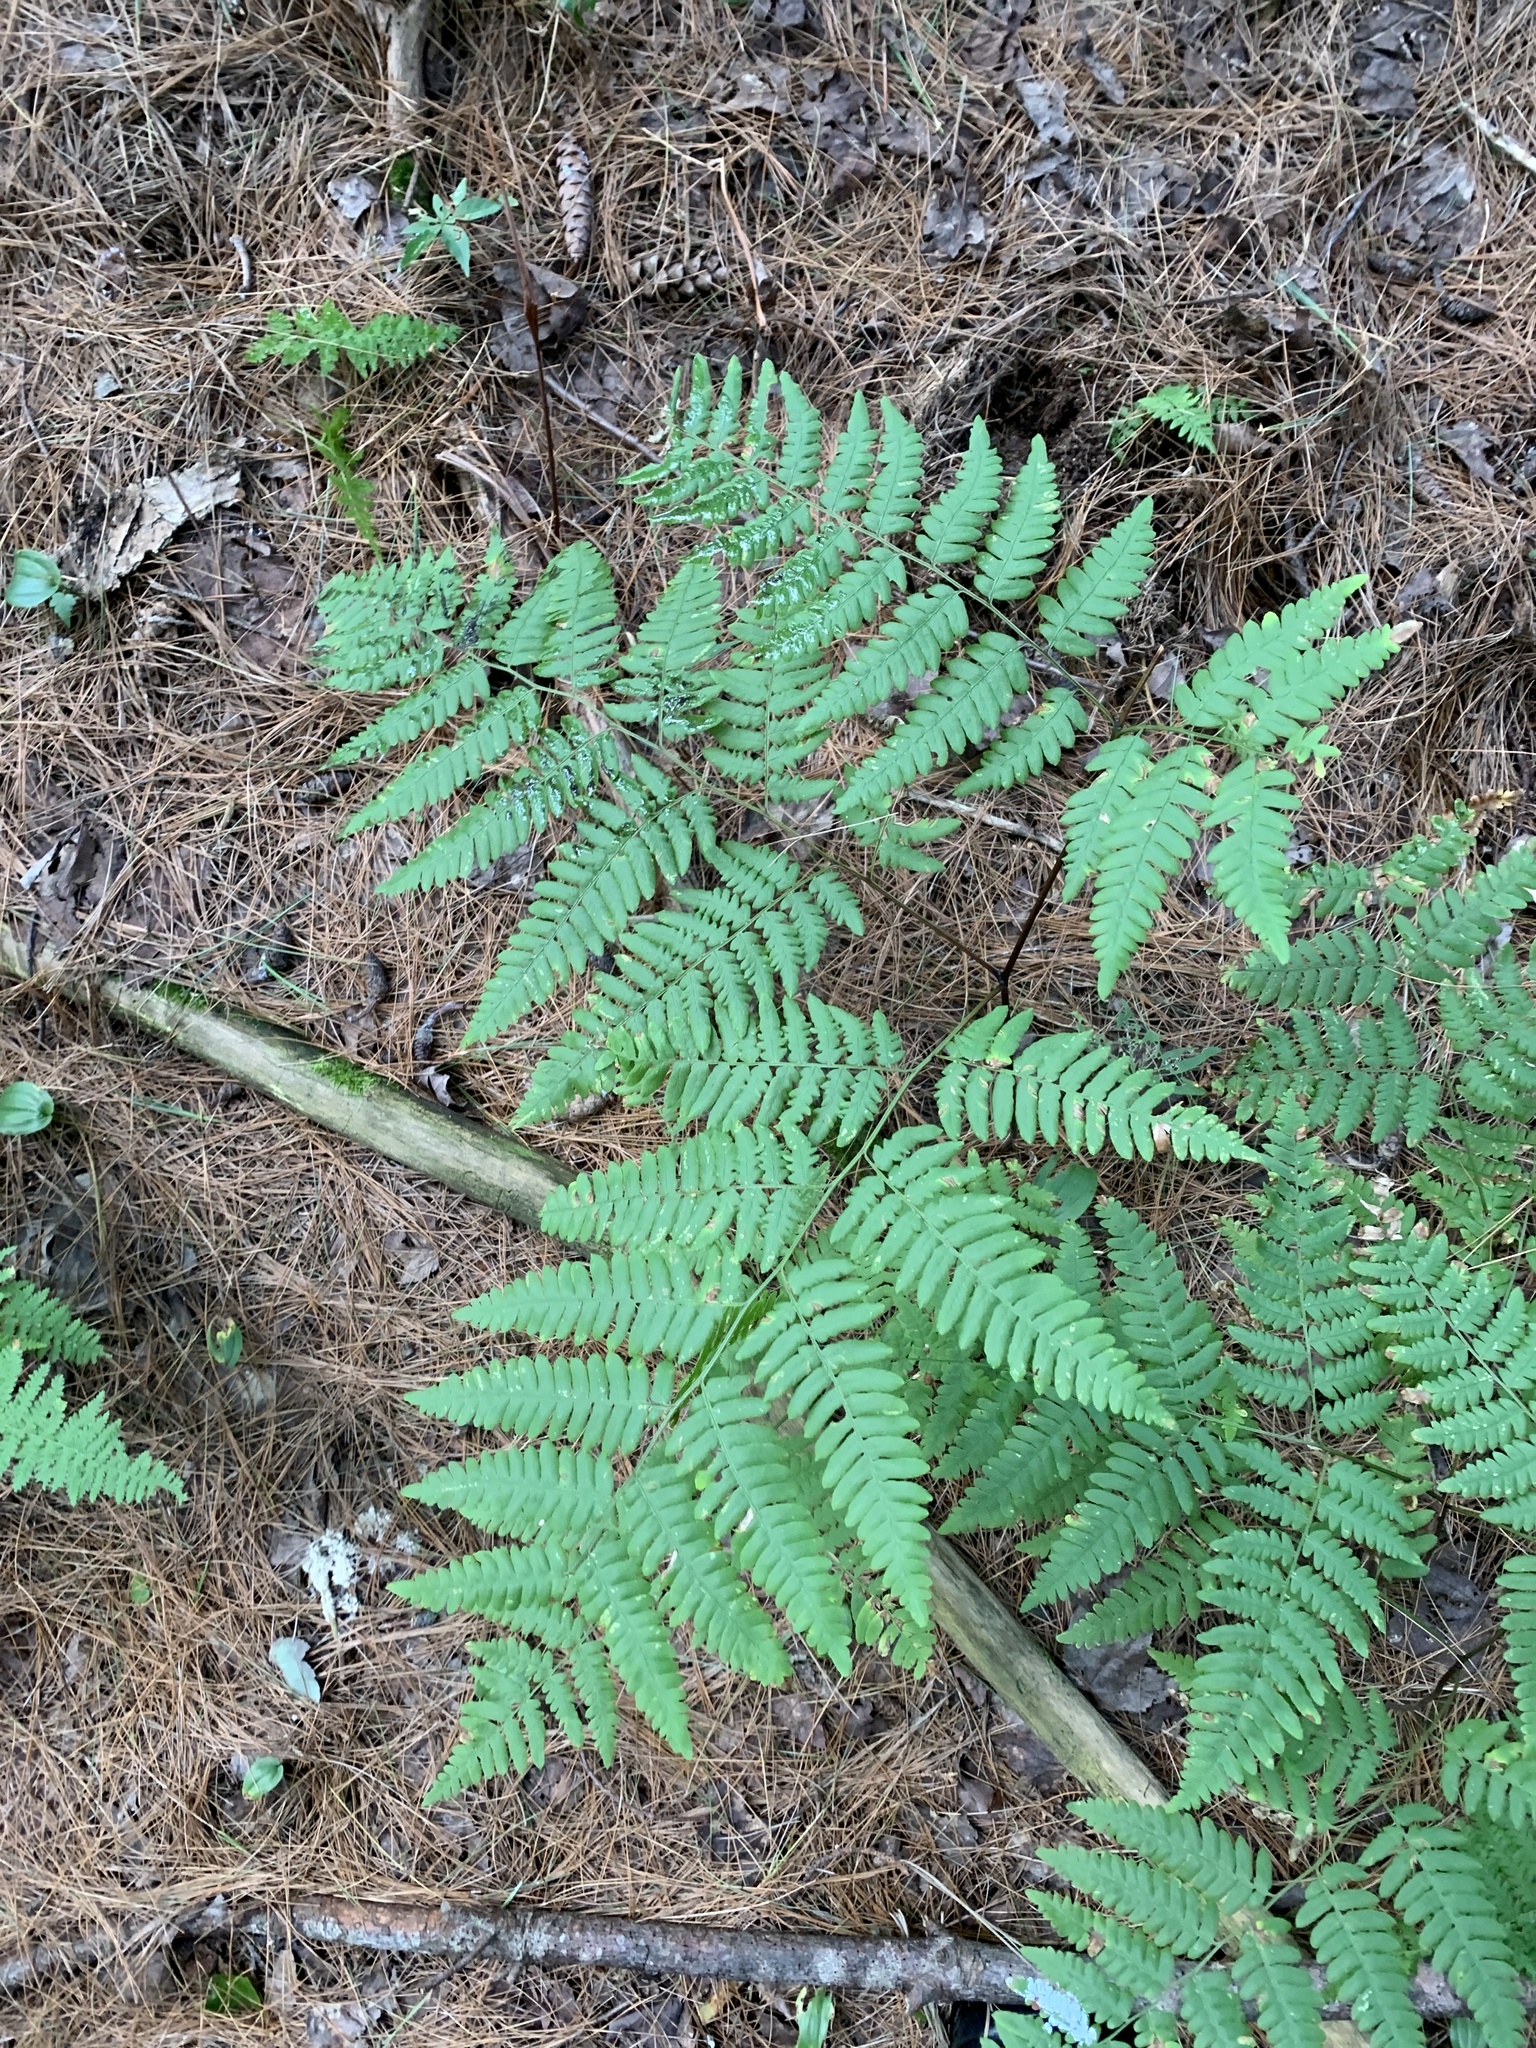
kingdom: Plantae
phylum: Tracheophyta
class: Polypodiopsida
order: Polypodiales
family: Dennstaedtiaceae
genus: Pteridium
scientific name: Pteridium aquilinum
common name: Bracken
